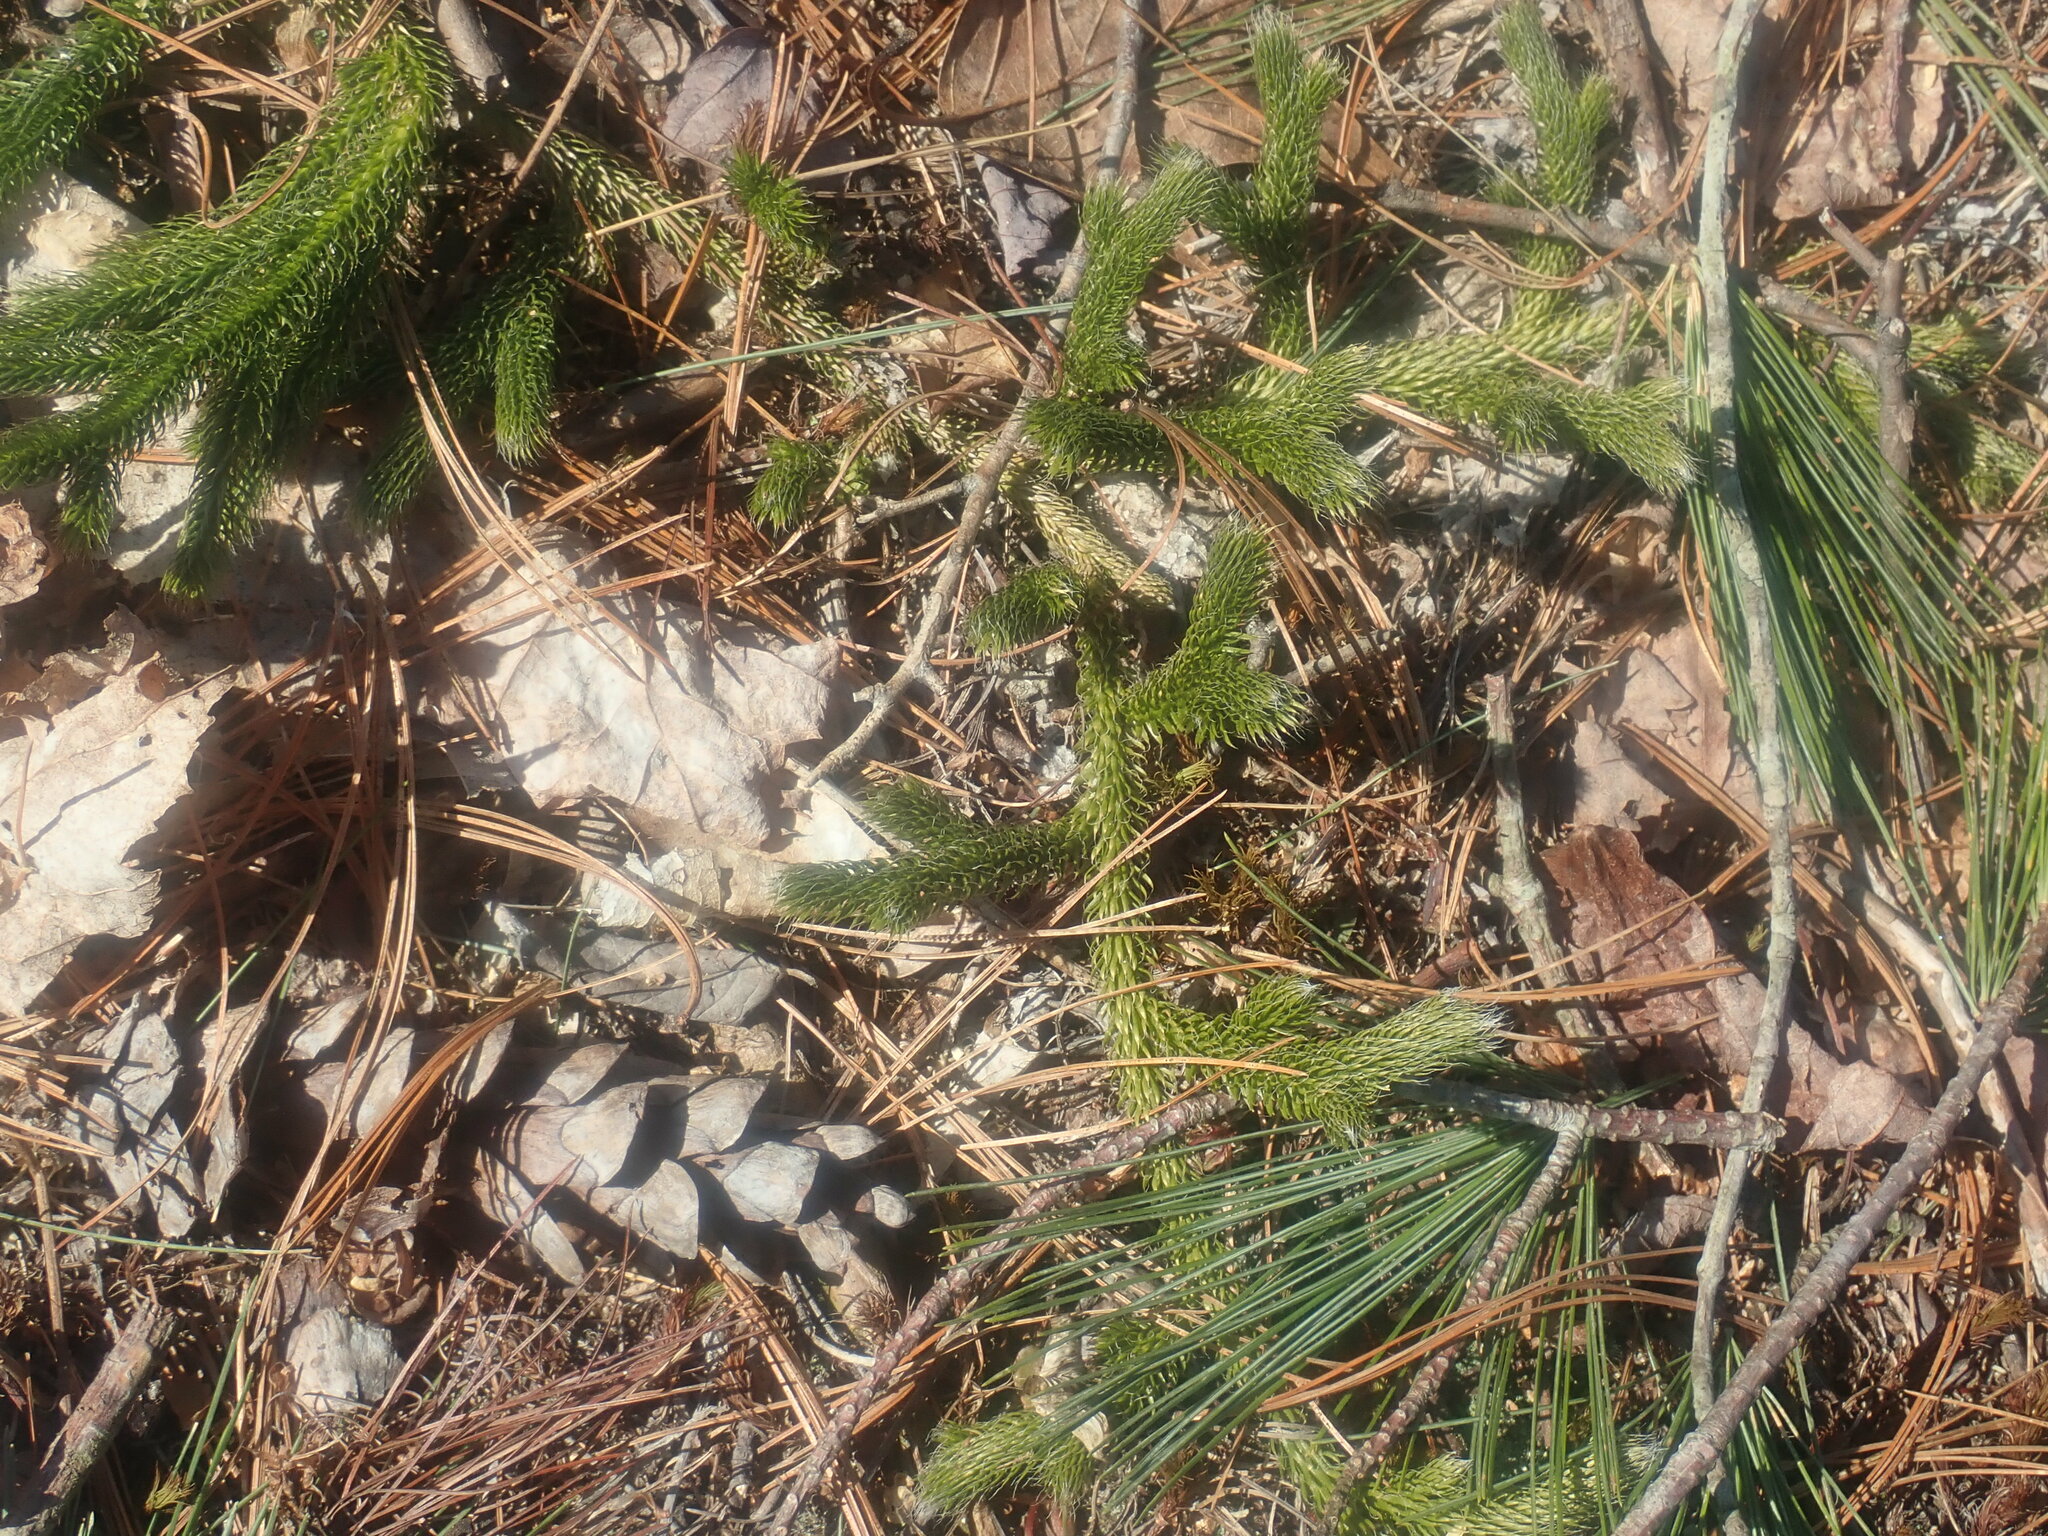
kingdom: Plantae
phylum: Tracheophyta
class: Lycopodiopsida
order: Lycopodiales
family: Lycopodiaceae
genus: Lycopodium
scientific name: Lycopodium clavatum
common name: Stag's-horn clubmoss
